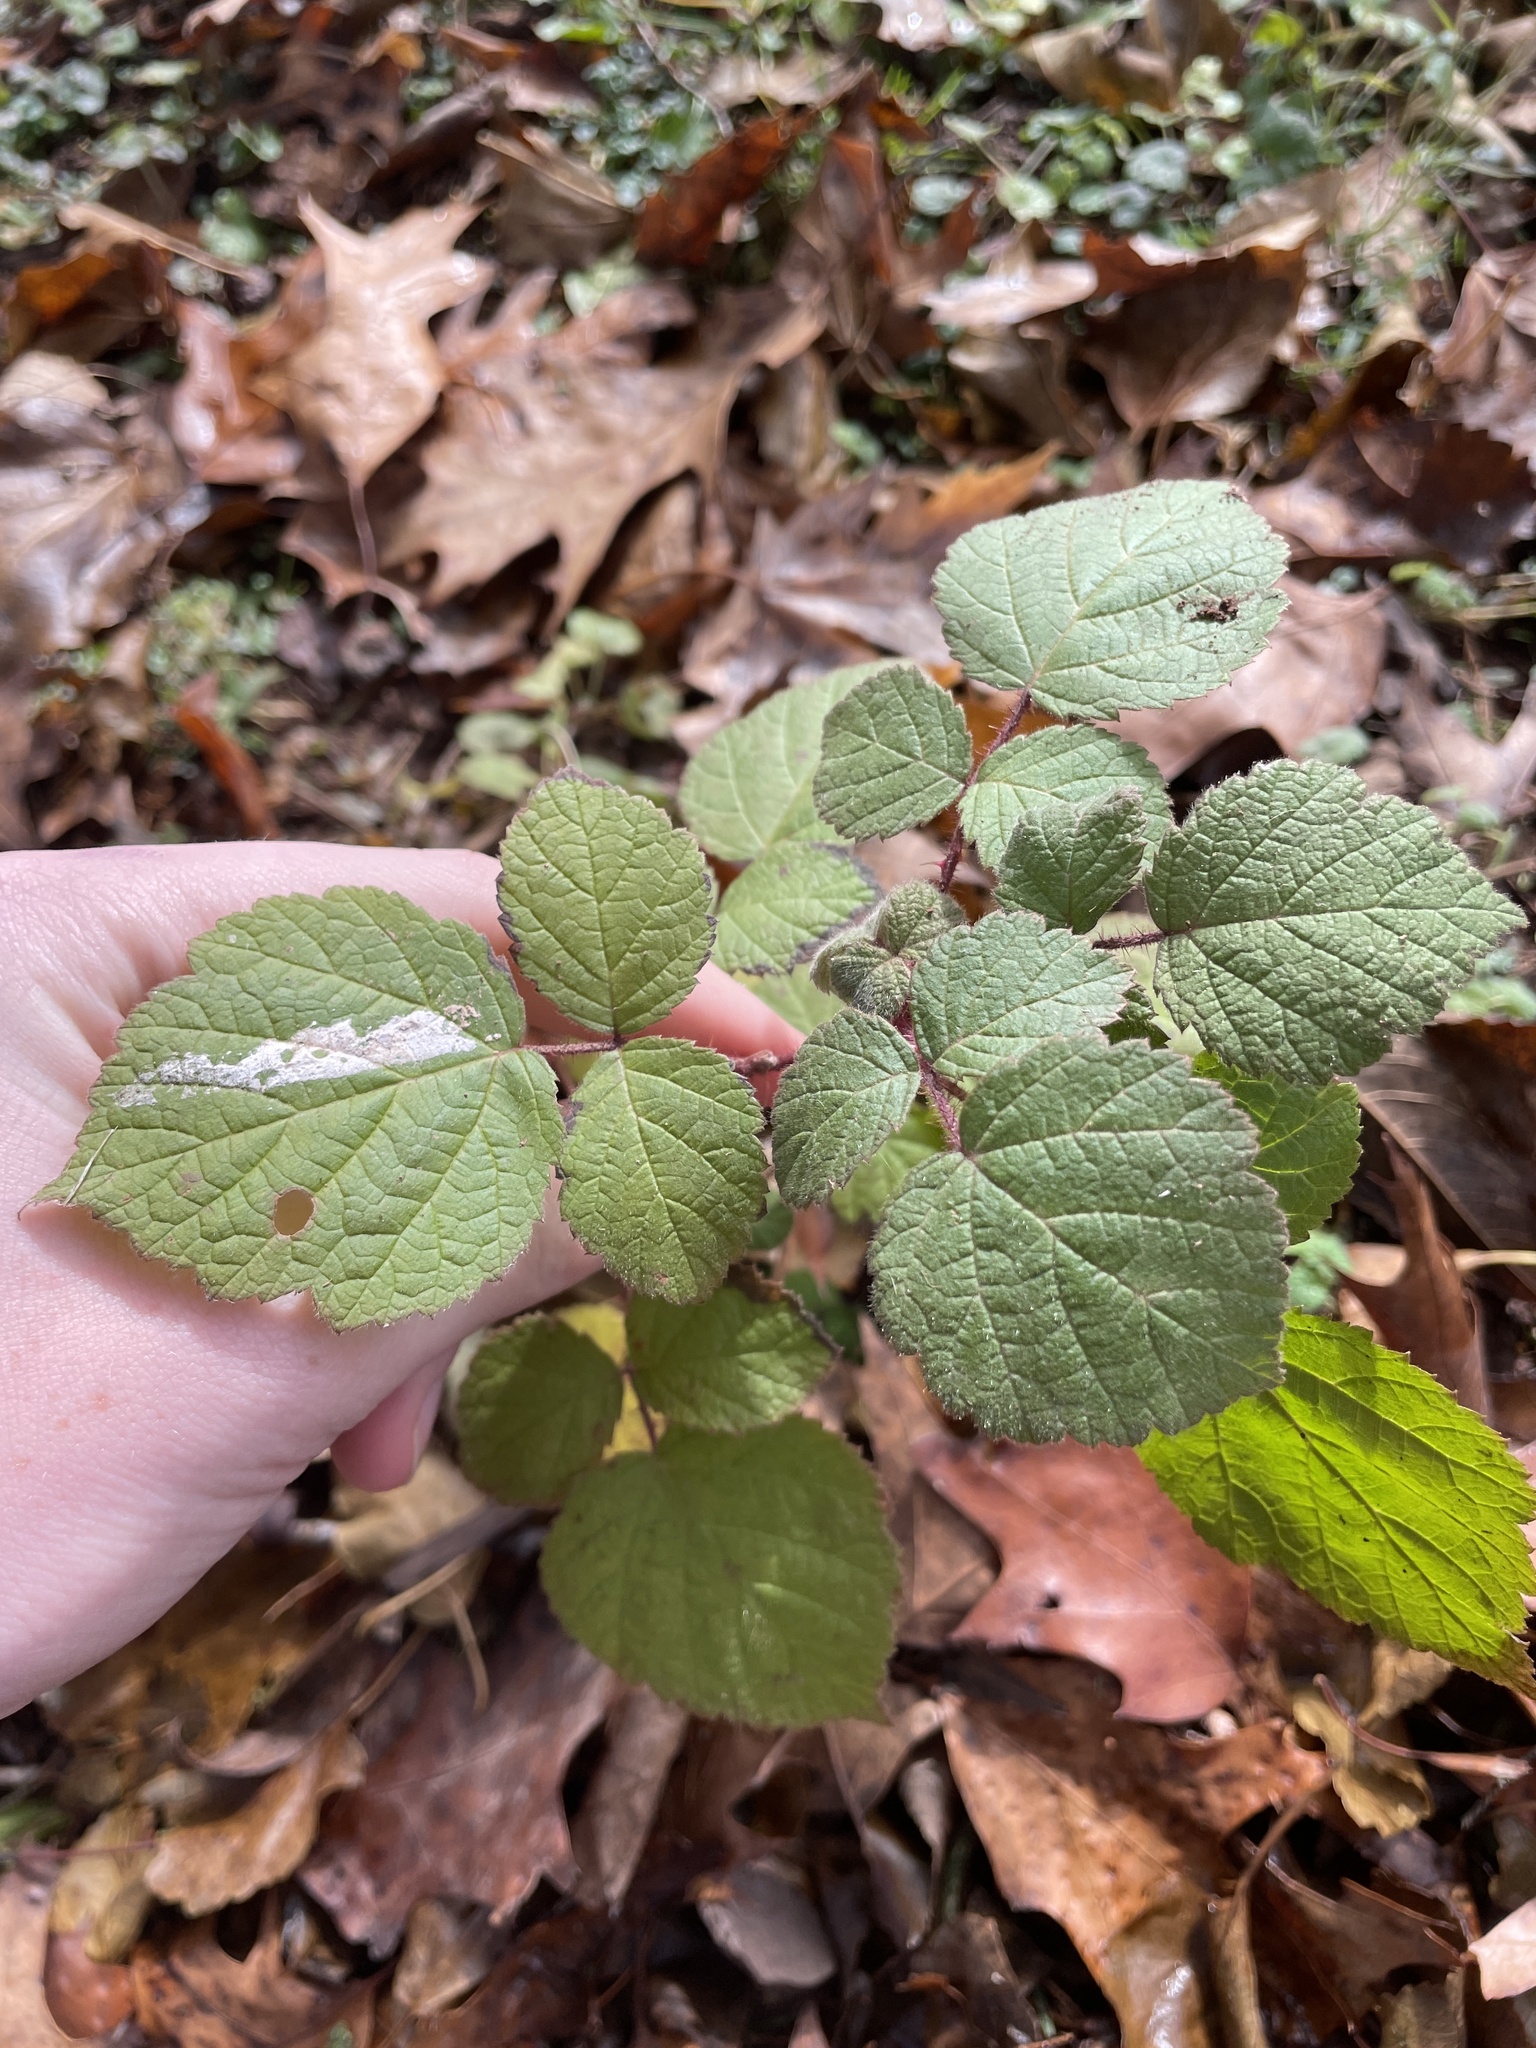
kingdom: Plantae
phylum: Tracheophyta
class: Magnoliopsida
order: Rosales
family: Rosaceae
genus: Rubus
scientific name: Rubus phoenicolasius
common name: Japanese wineberry
